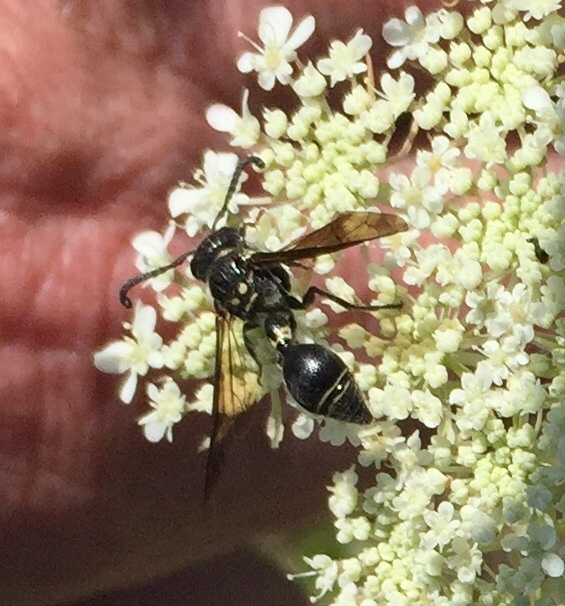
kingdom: Animalia
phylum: Arthropoda
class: Insecta
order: Hymenoptera
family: Eumenidae
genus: Zethus
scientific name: Zethus spinipes
